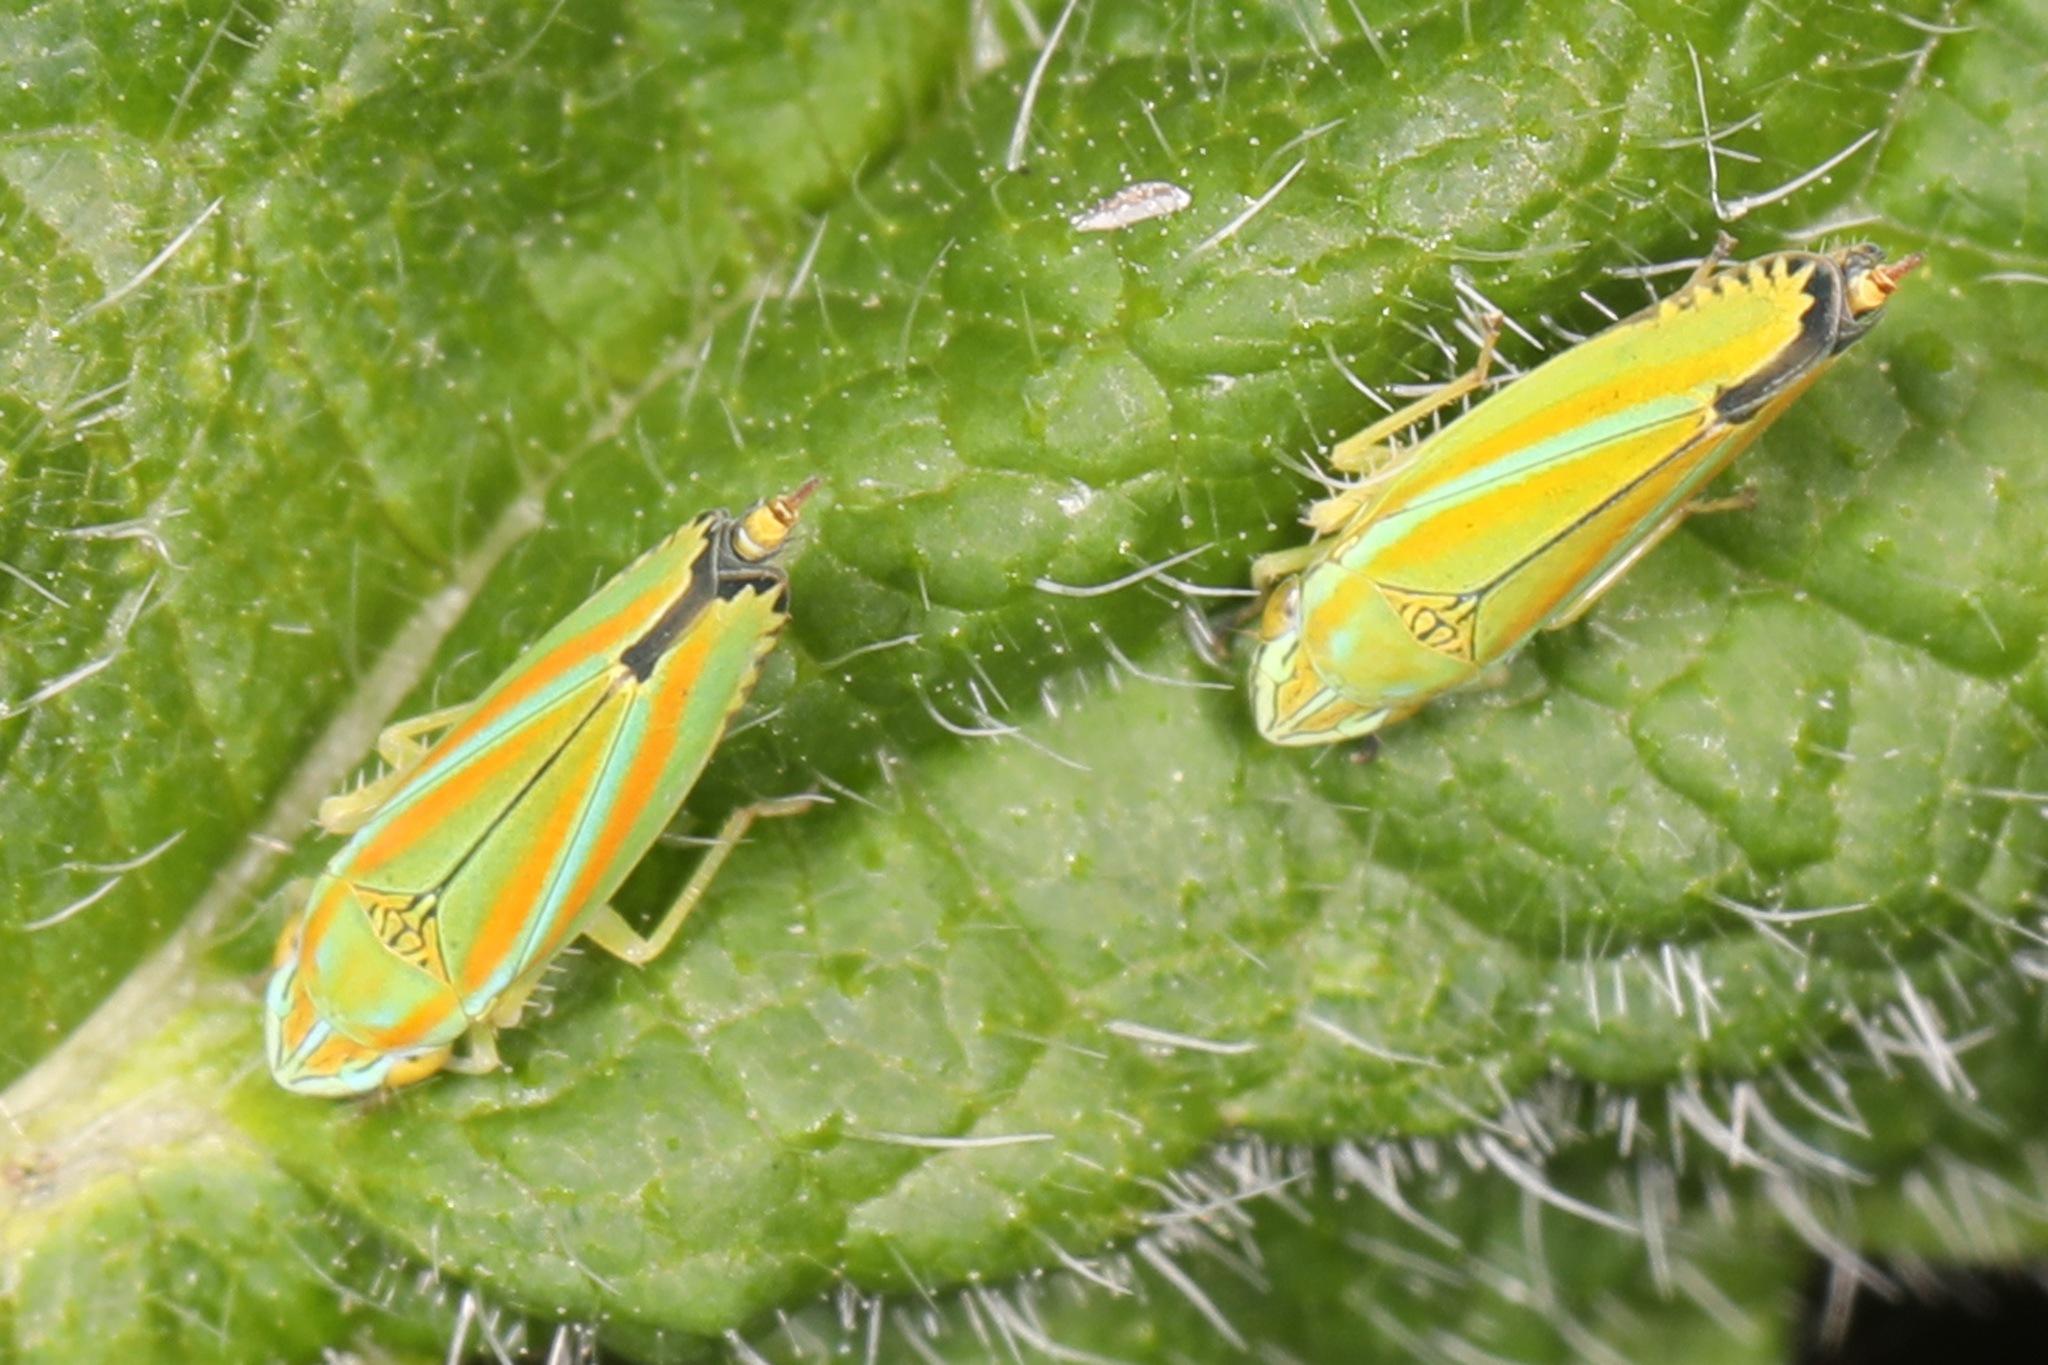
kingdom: Animalia
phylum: Arthropoda
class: Insecta
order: Hemiptera
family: Cicadellidae
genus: Graphocephala
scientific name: Graphocephala versuta
